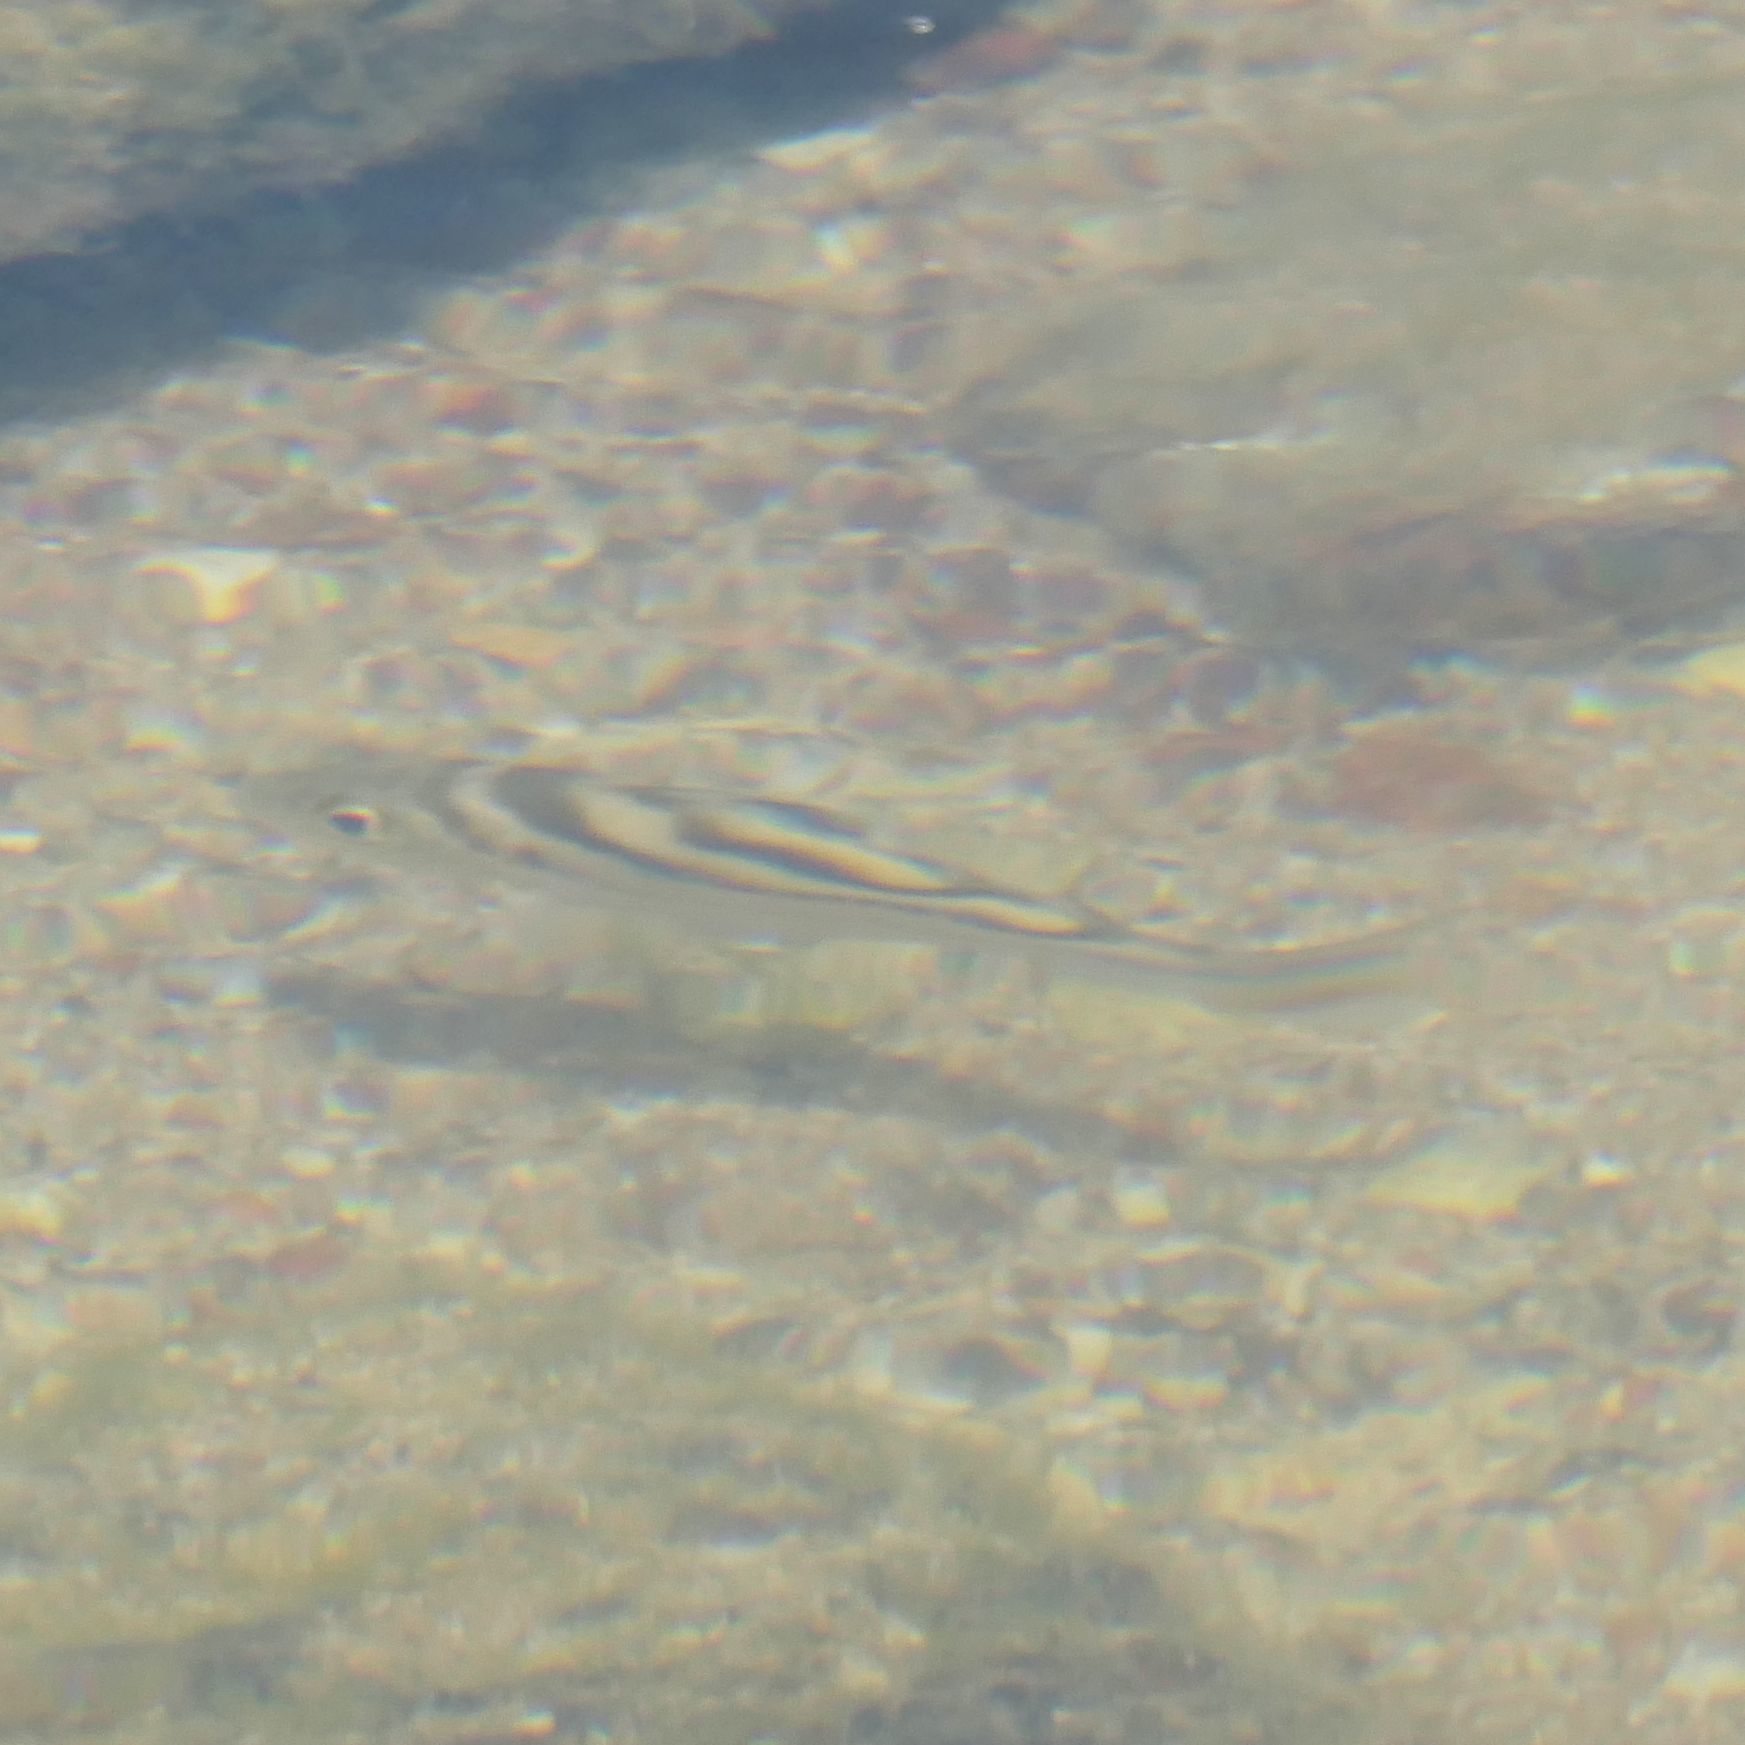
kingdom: Animalia
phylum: Chordata
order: Perciformes
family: Terapontidae
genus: Terapon
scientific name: Terapon jarbua
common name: Jarbua terapon
